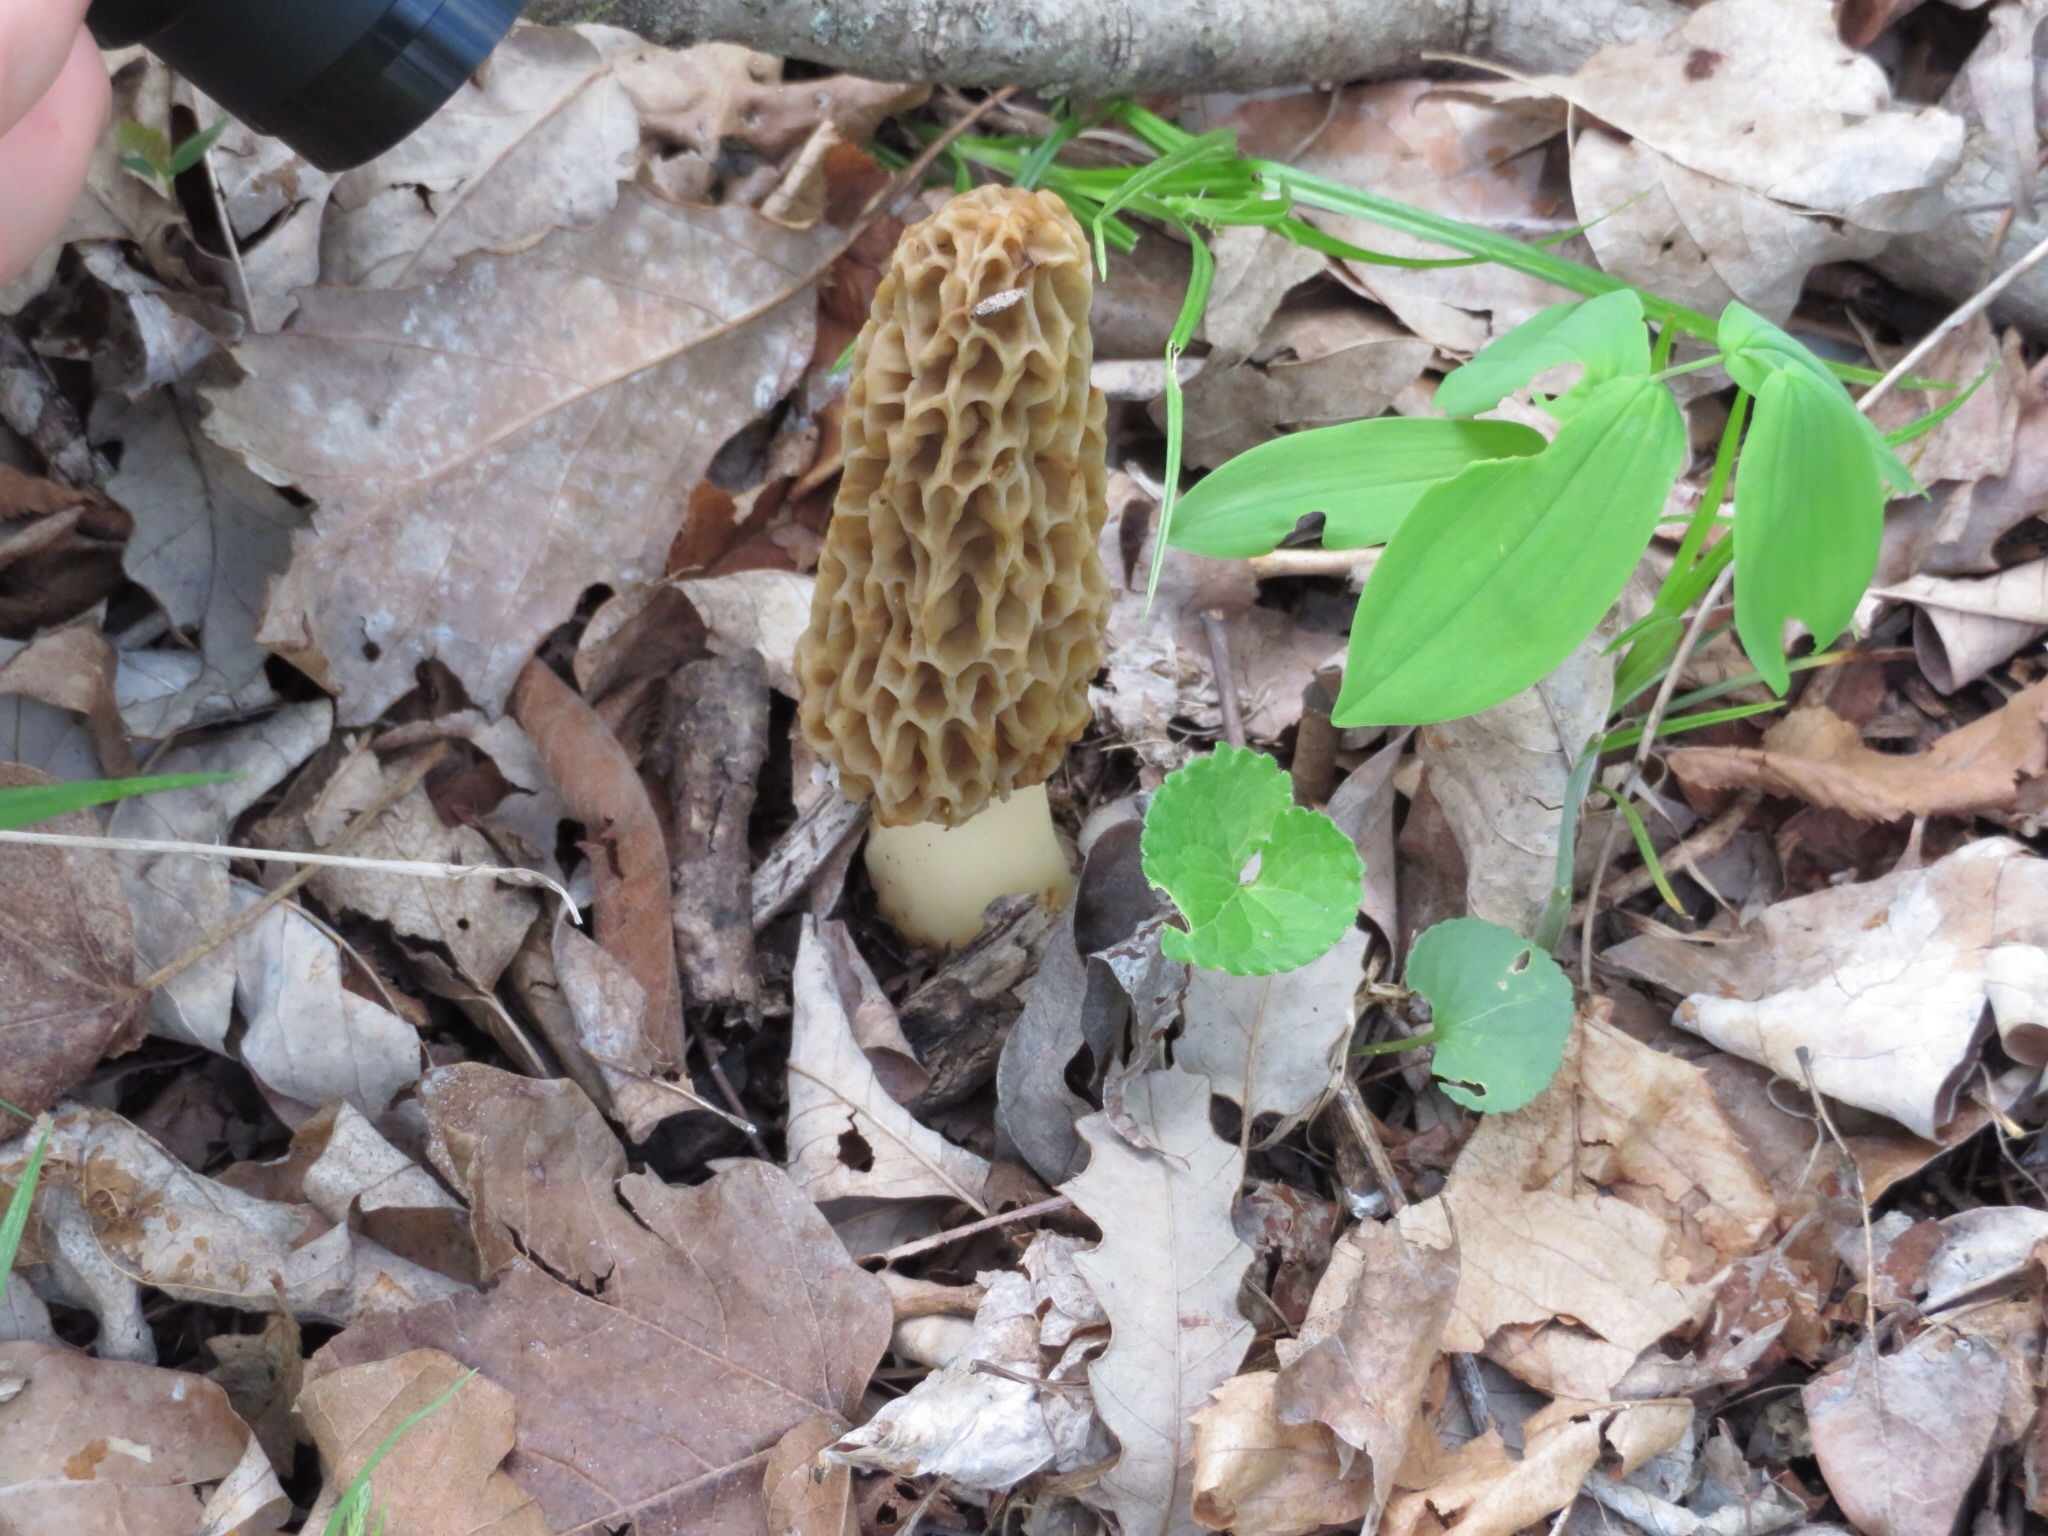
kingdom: Fungi
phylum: Ascomycota
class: Pezizomycetes
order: Pezizales
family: Morchellaceae
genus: Morchella
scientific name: Morchella americana
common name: White morel
